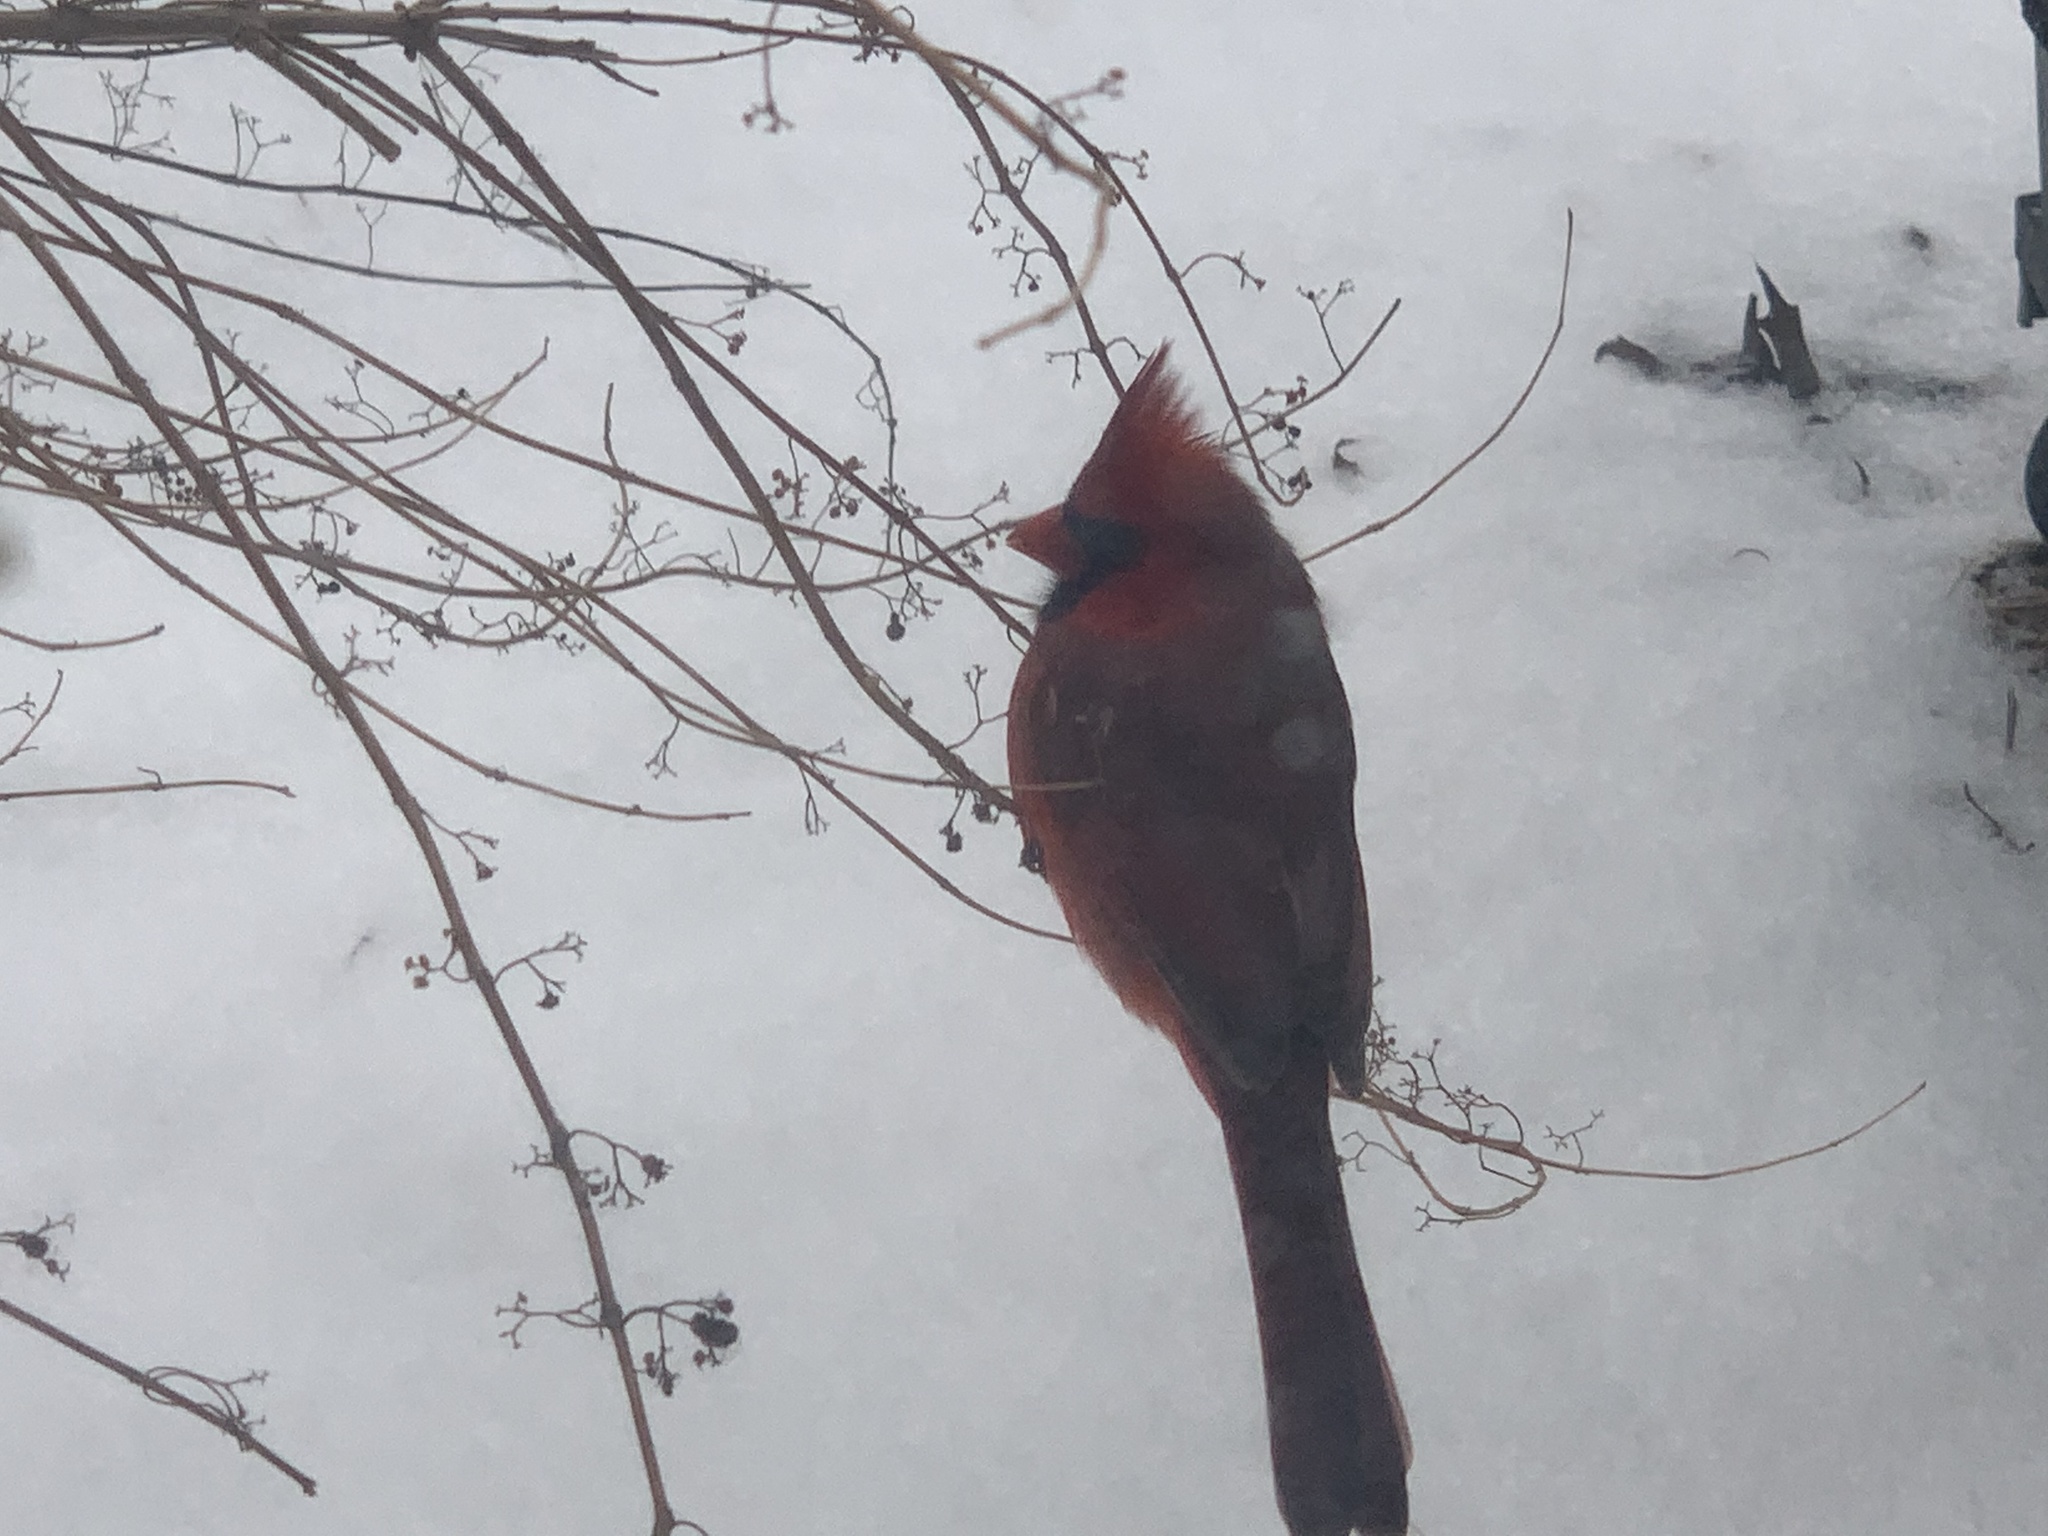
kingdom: Animalia
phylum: Chordata
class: Aves
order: Passeriformes
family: Cardinalidae
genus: Cardinalis
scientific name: Cardinalis cardinalis
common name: Northern cardinal
